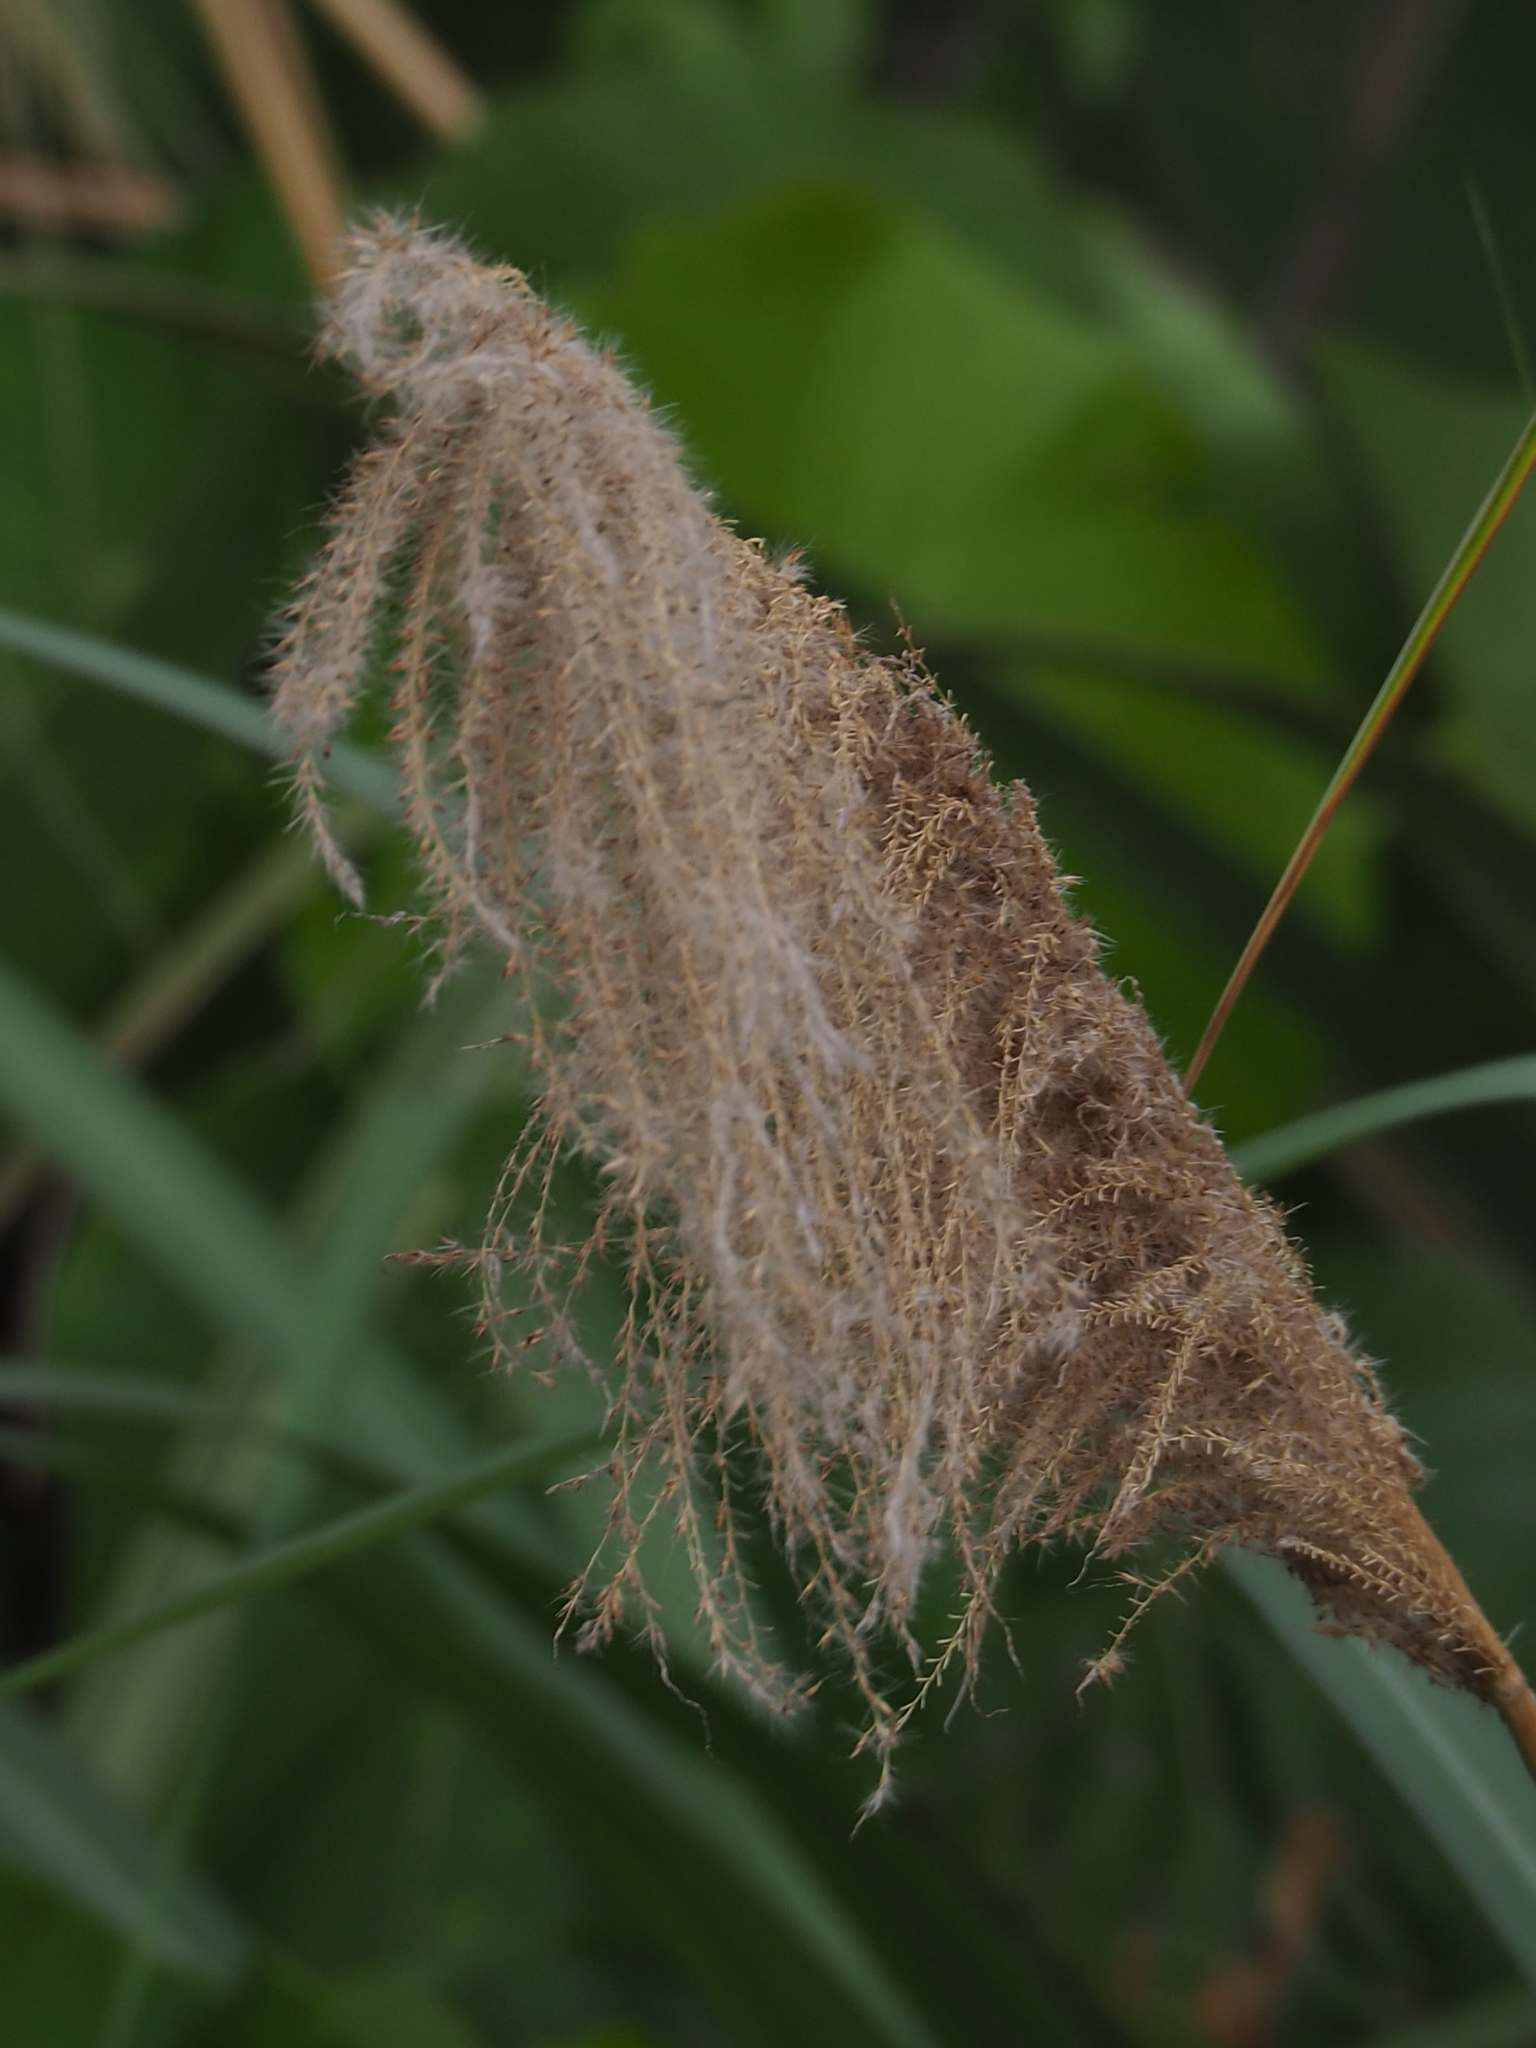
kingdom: Plantae
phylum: Tracheophyta
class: Liliopsida
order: Poales
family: Poaceae
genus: Miscanthus
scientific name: Miscanthus sinensis
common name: Chinese silvergrass
